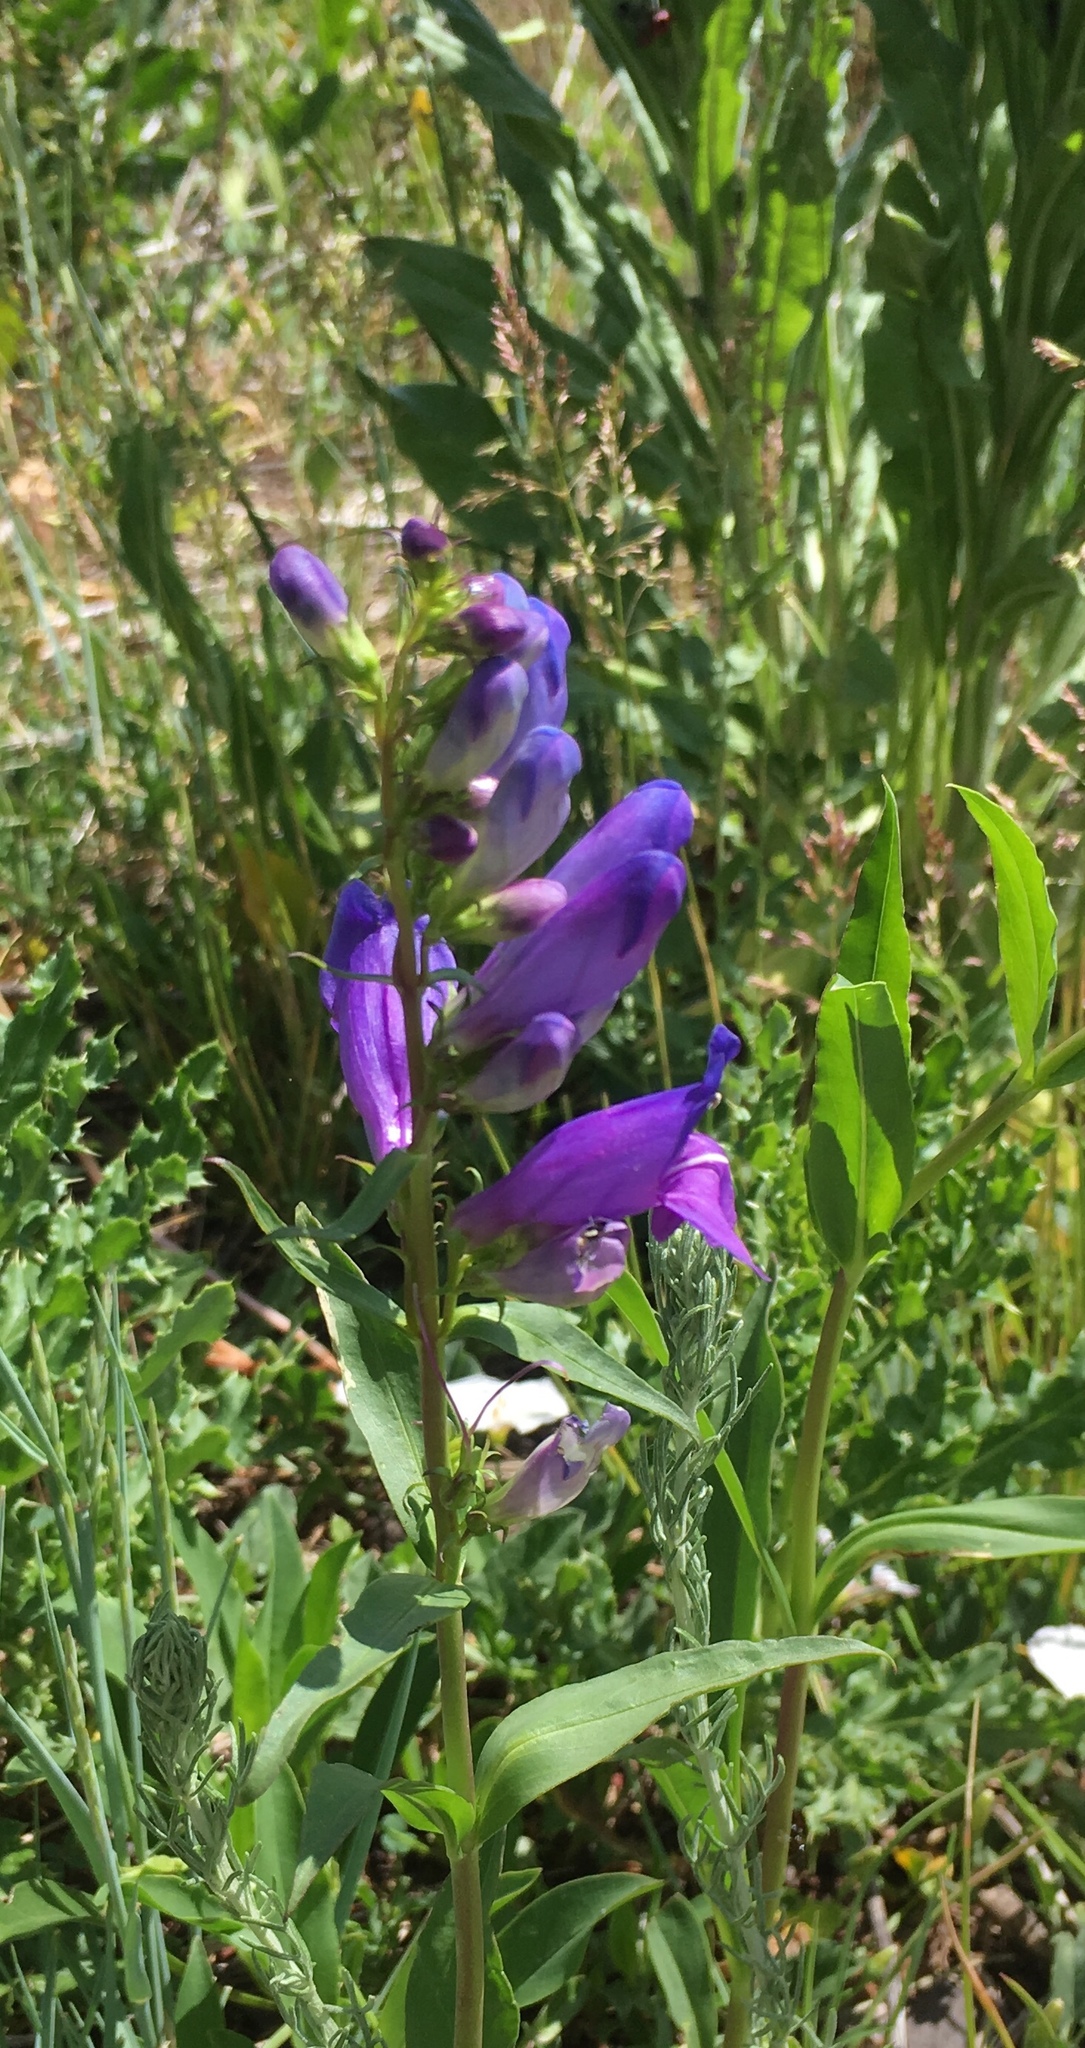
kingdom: Plantae
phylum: Tracheophyta
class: Magnoliopsida
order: Lamiales
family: Plantaginaceae
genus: Penstemon
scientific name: Penstemon strictus
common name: Rocky mountain penstemon
